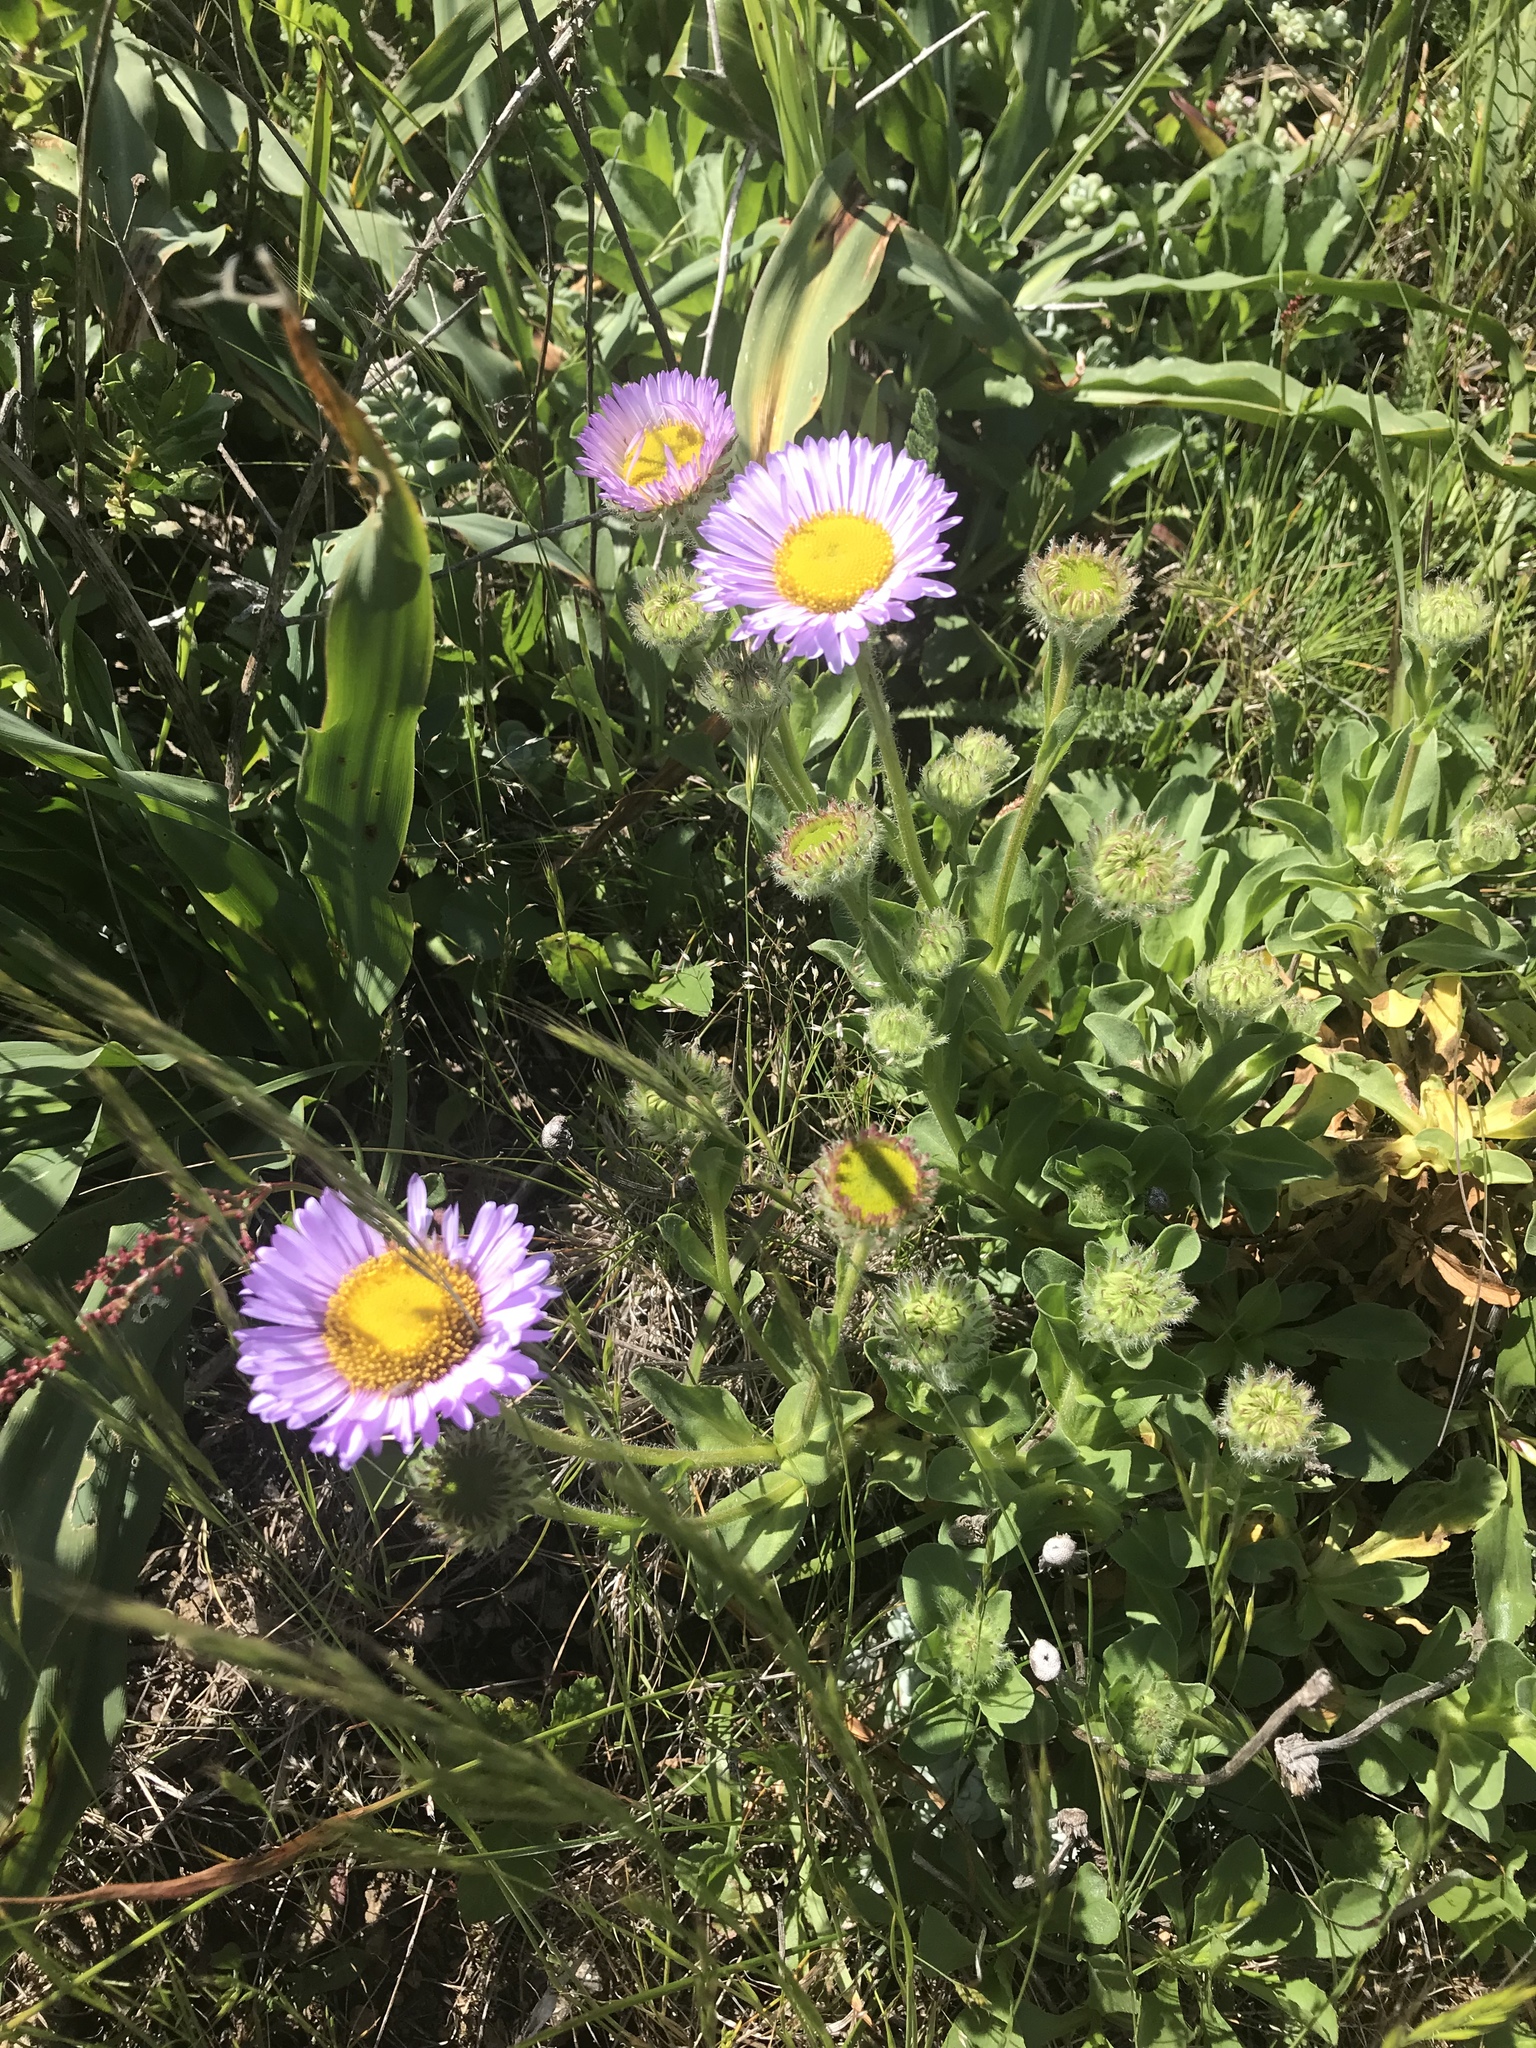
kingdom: Plantae
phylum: Tracheophyta
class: Magnoliopsida
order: Asterales
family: Asteraceae
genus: Erigeron
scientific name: Erigeron glaucus
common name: Seaside daisy
